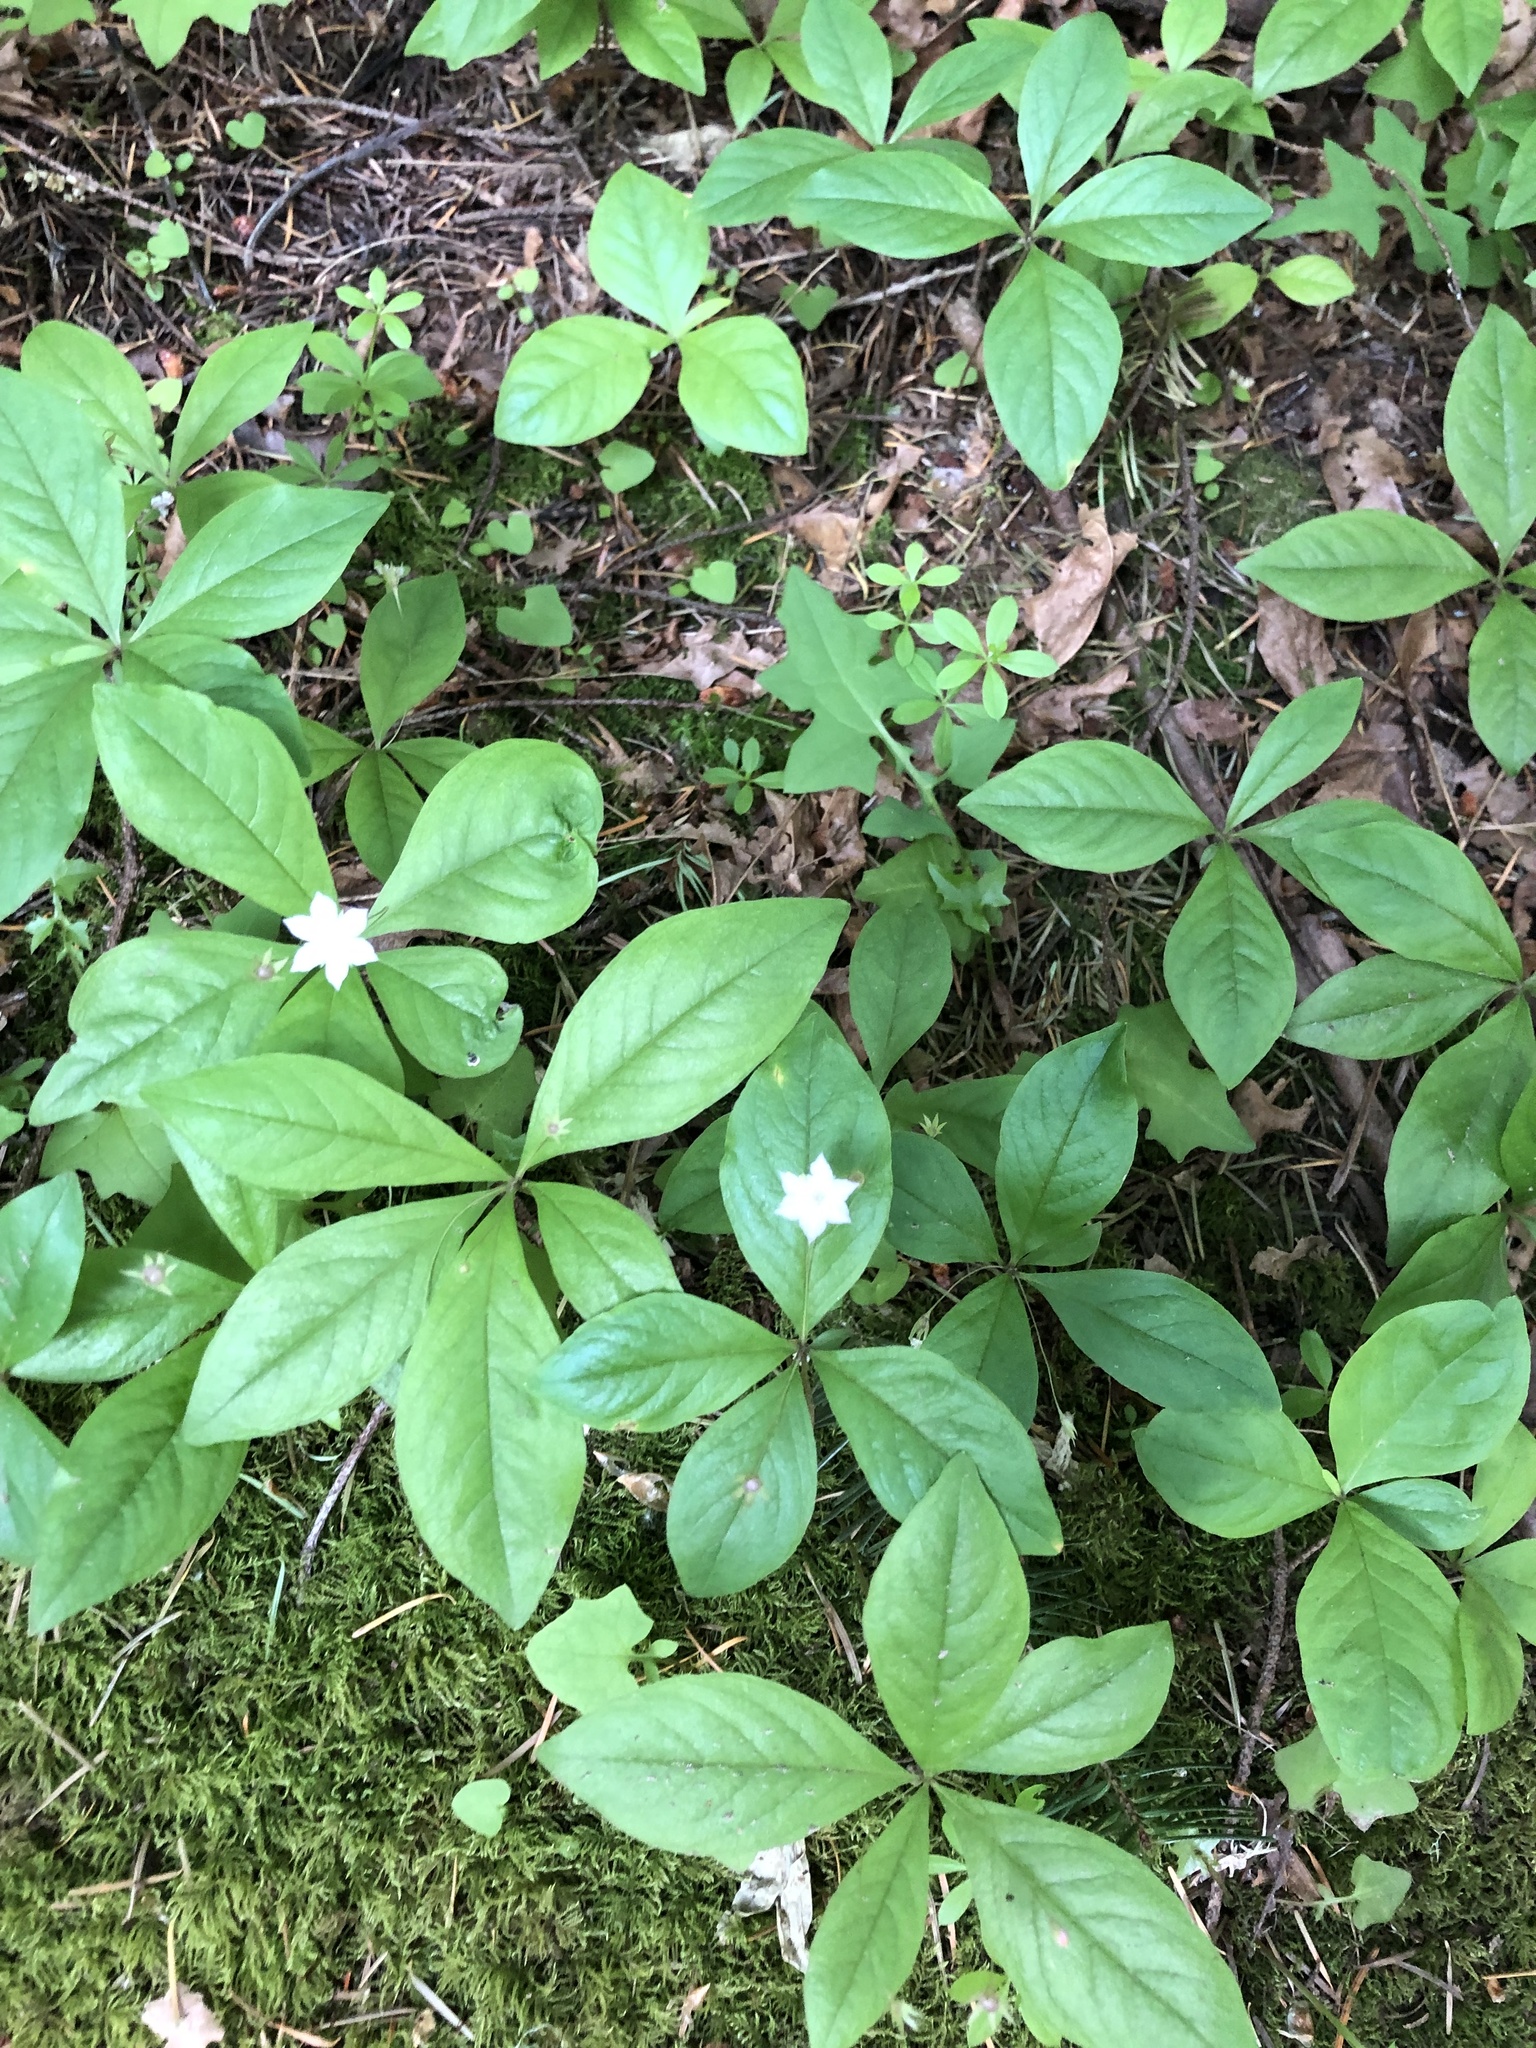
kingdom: Plantae
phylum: Tracheophyta
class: Magnoliopsida
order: Ericales
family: Primulaceae
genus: Lysimachia
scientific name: Lysimachia latifolia
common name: Pacific starflower
